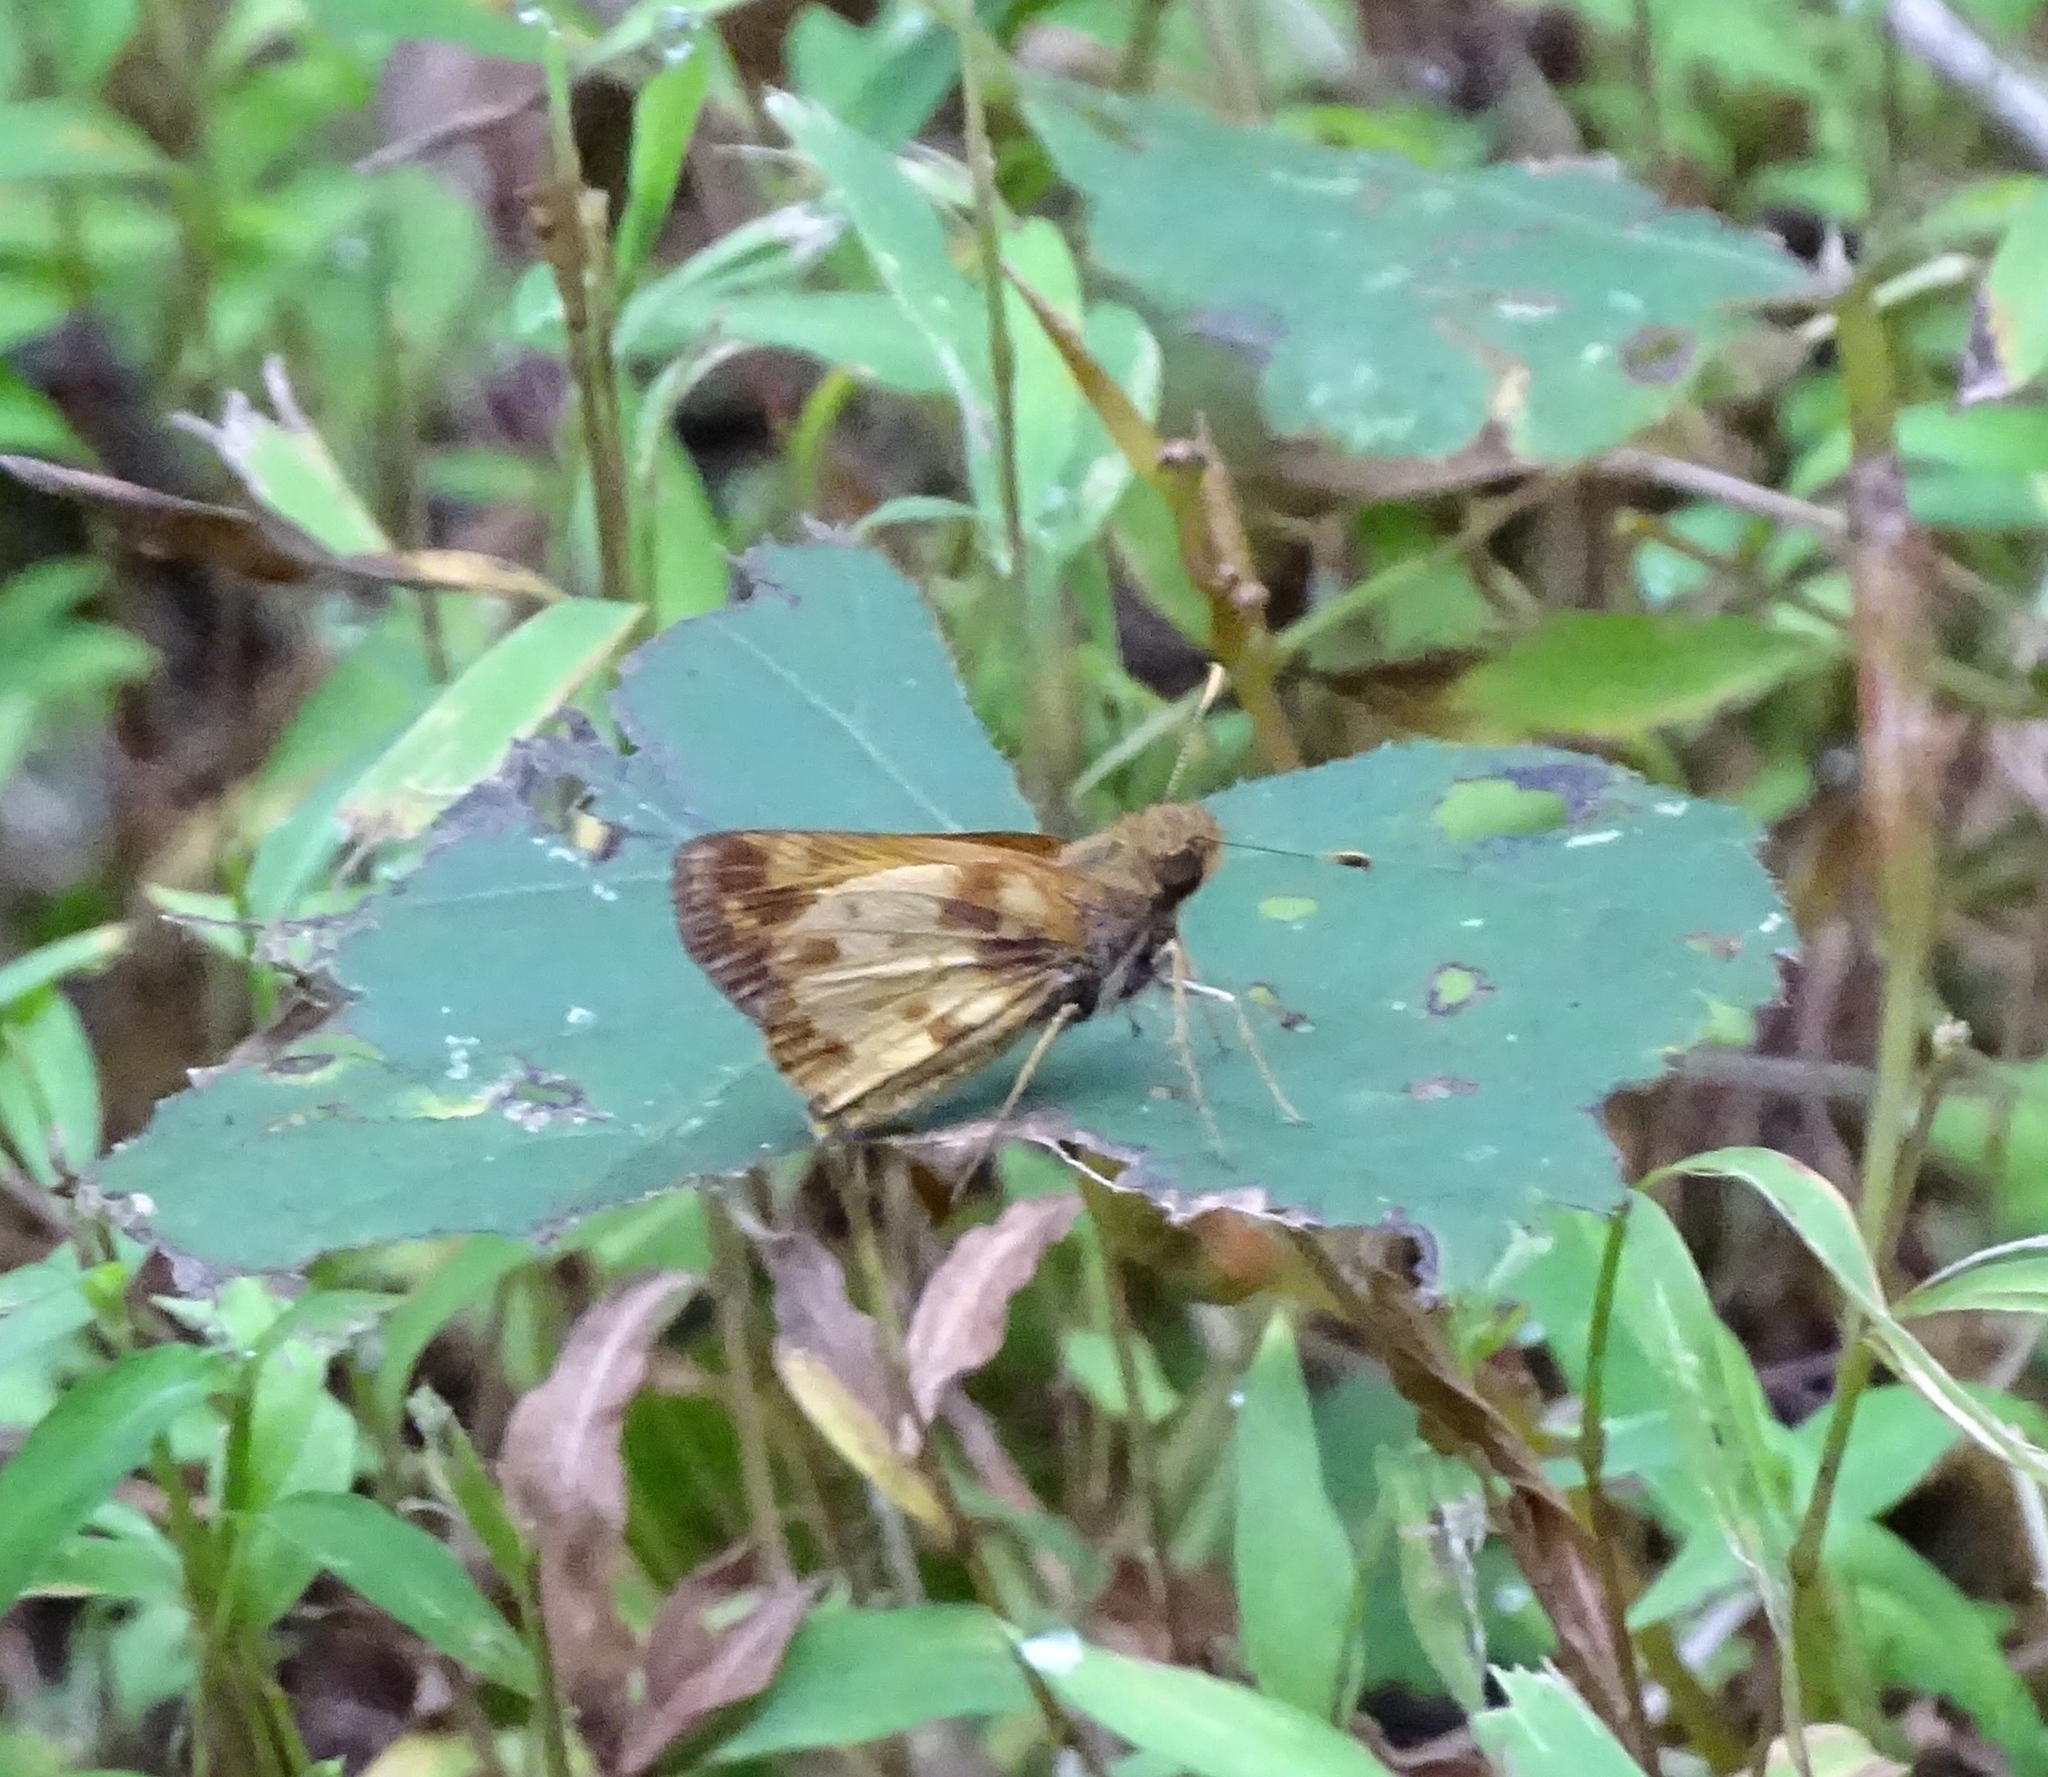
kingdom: Animalia
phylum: Arthropoda
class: Insecta
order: Lepidoptera
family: Hesperiidae
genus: Lon
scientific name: Lon zabulon
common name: Zabulon skipper
